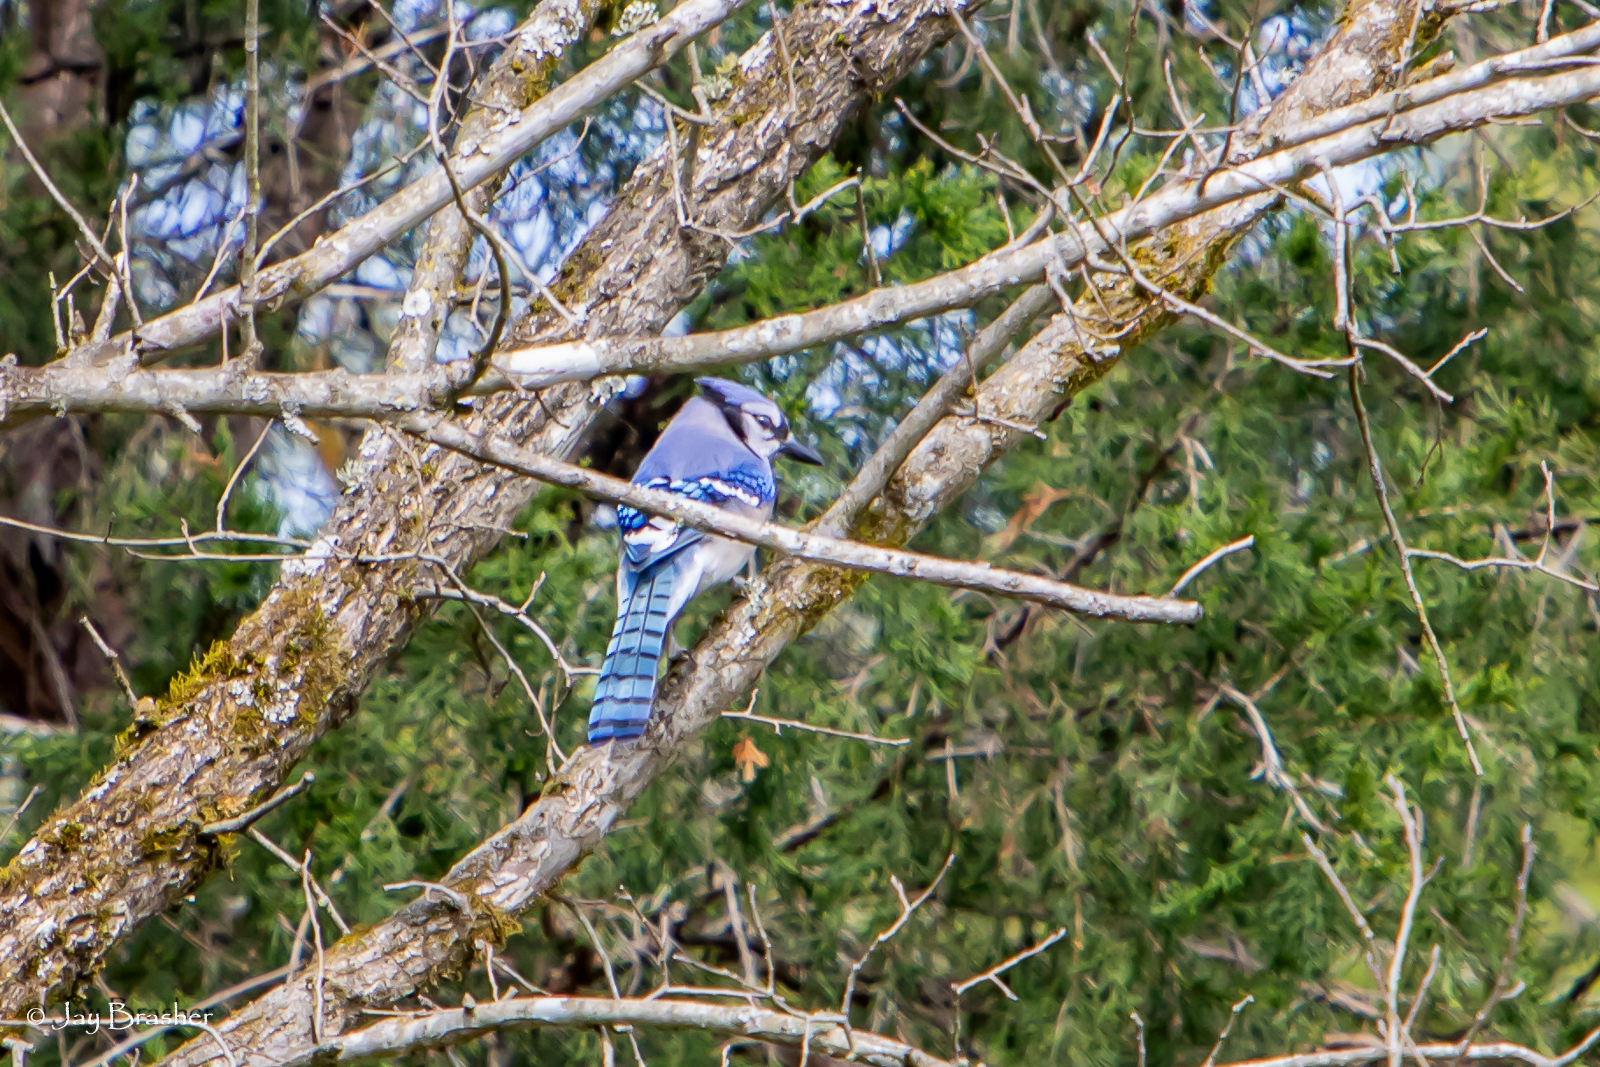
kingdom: Animalia
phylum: Chordata
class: Aves
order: Passeriformes
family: Corvidae
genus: Cyanocitta
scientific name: Cyanocitta cristata
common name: Blue jay
